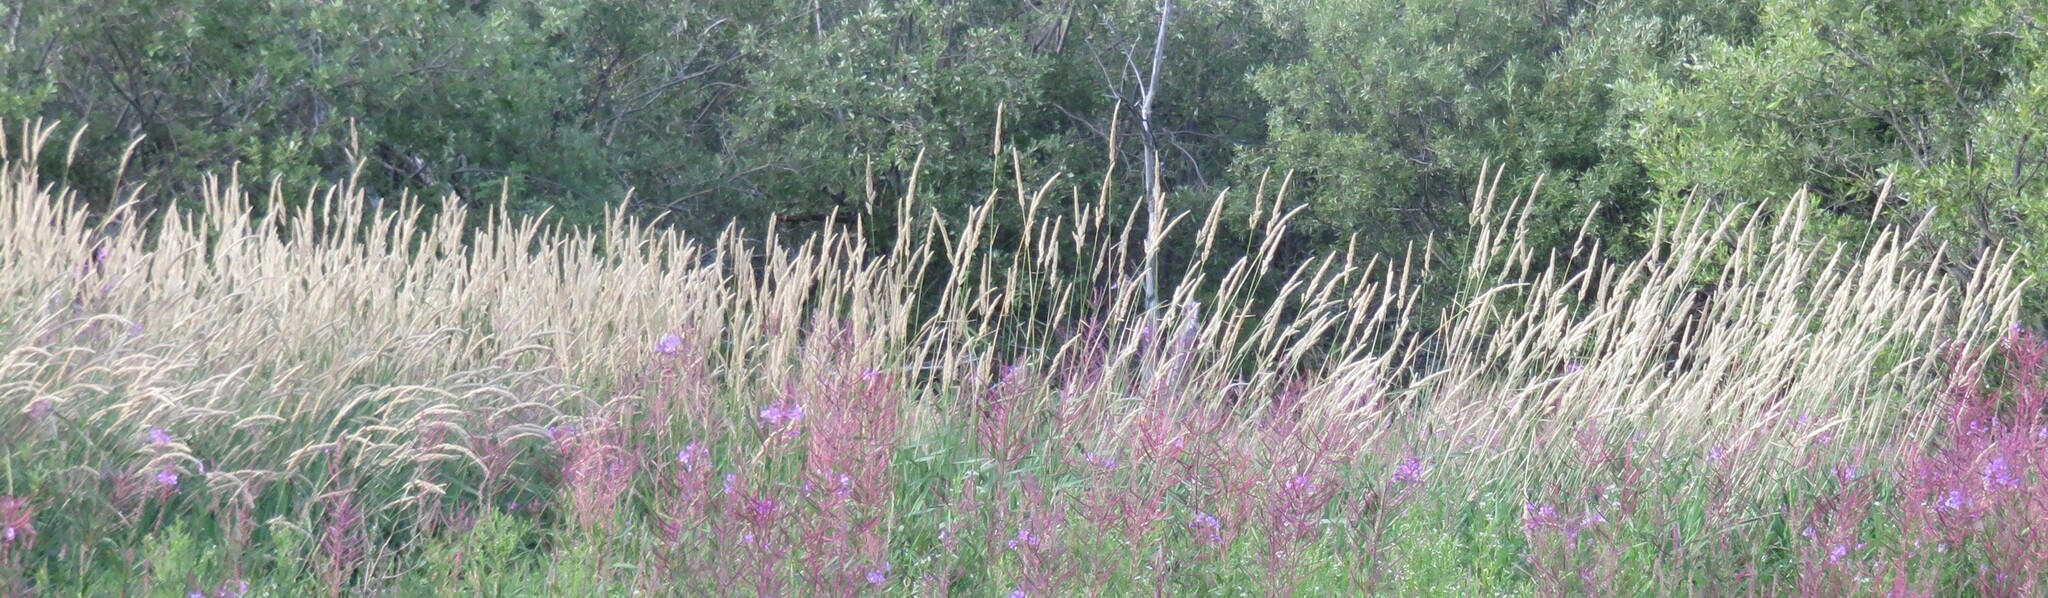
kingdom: Plantae
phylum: Tracheophyta
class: Liliopsida
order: Poales
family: Poaceae
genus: Phalaris
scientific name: Phalaris arundinacea
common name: Reed canary-grass
